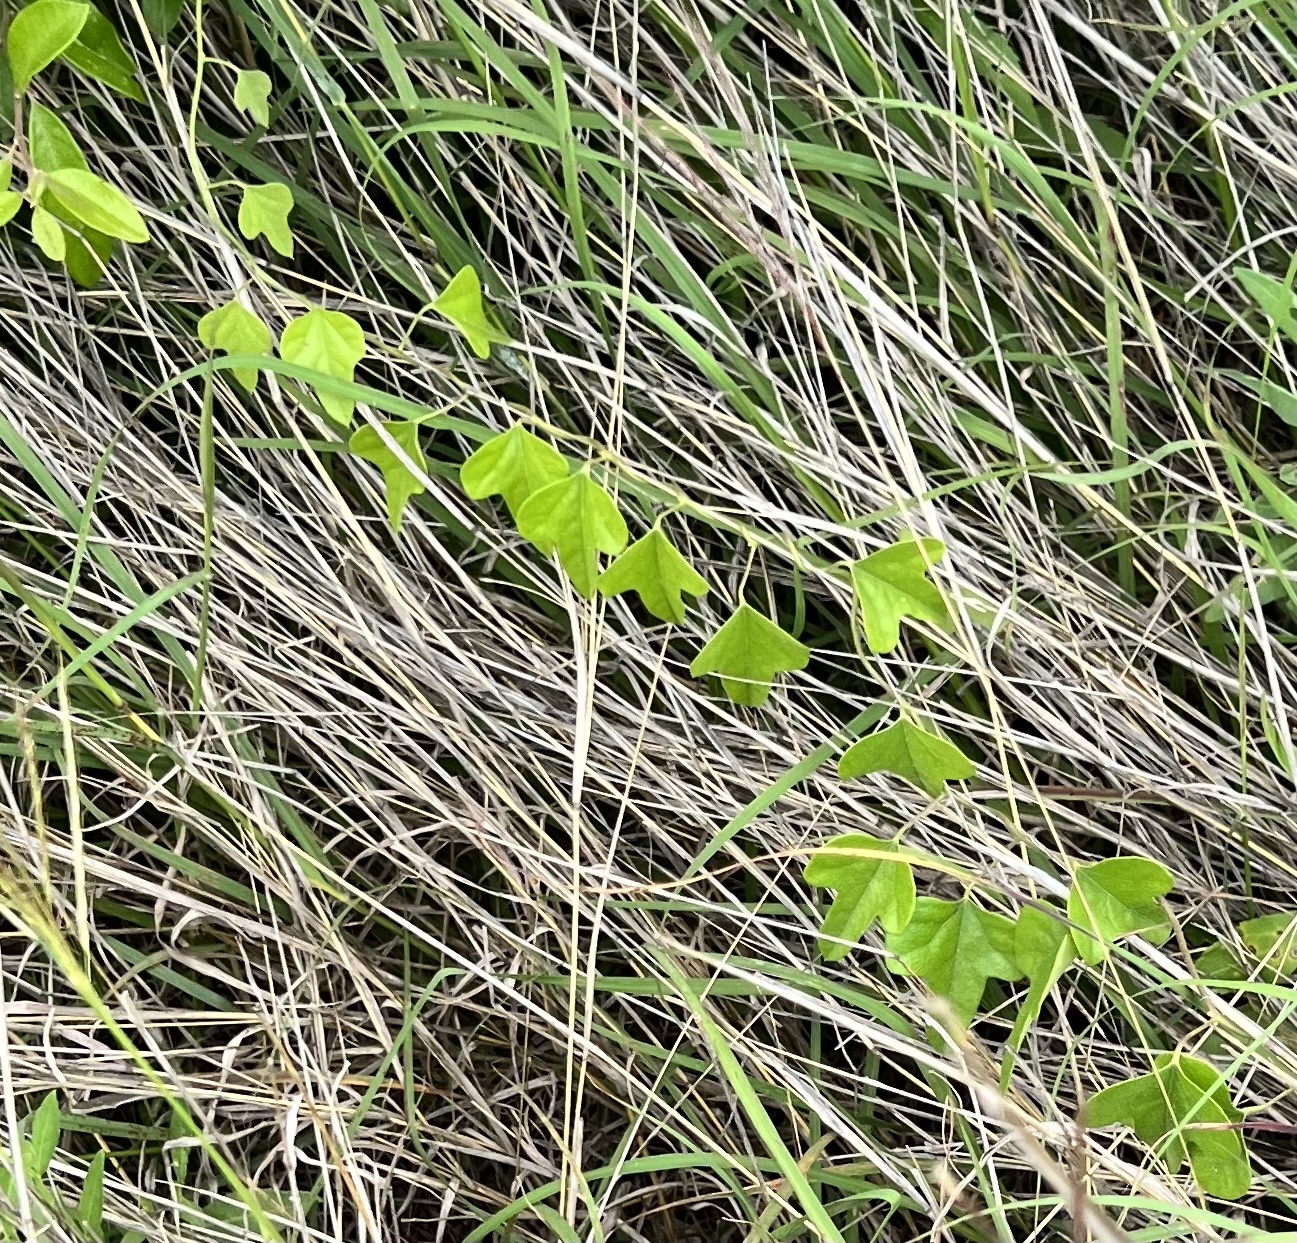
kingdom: Plantae
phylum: Tracheophyta
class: Magnoliopsida
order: Ranunculales
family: Menispermaceae
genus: Cocculus
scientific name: Cocculus carolinus
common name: Carolina moonseed
